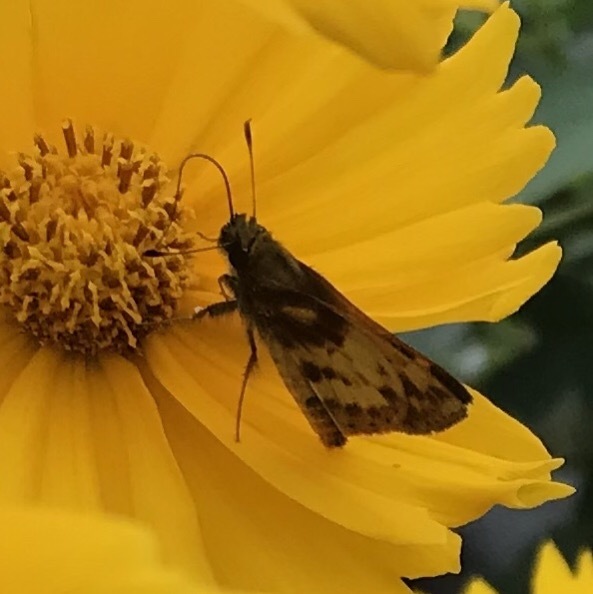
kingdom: Animalia
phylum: Arthropoda
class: Insecta
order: Lepidoptera
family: Hesperiidae
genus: Lon
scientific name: Lon zabulon
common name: Zabulon skipper
